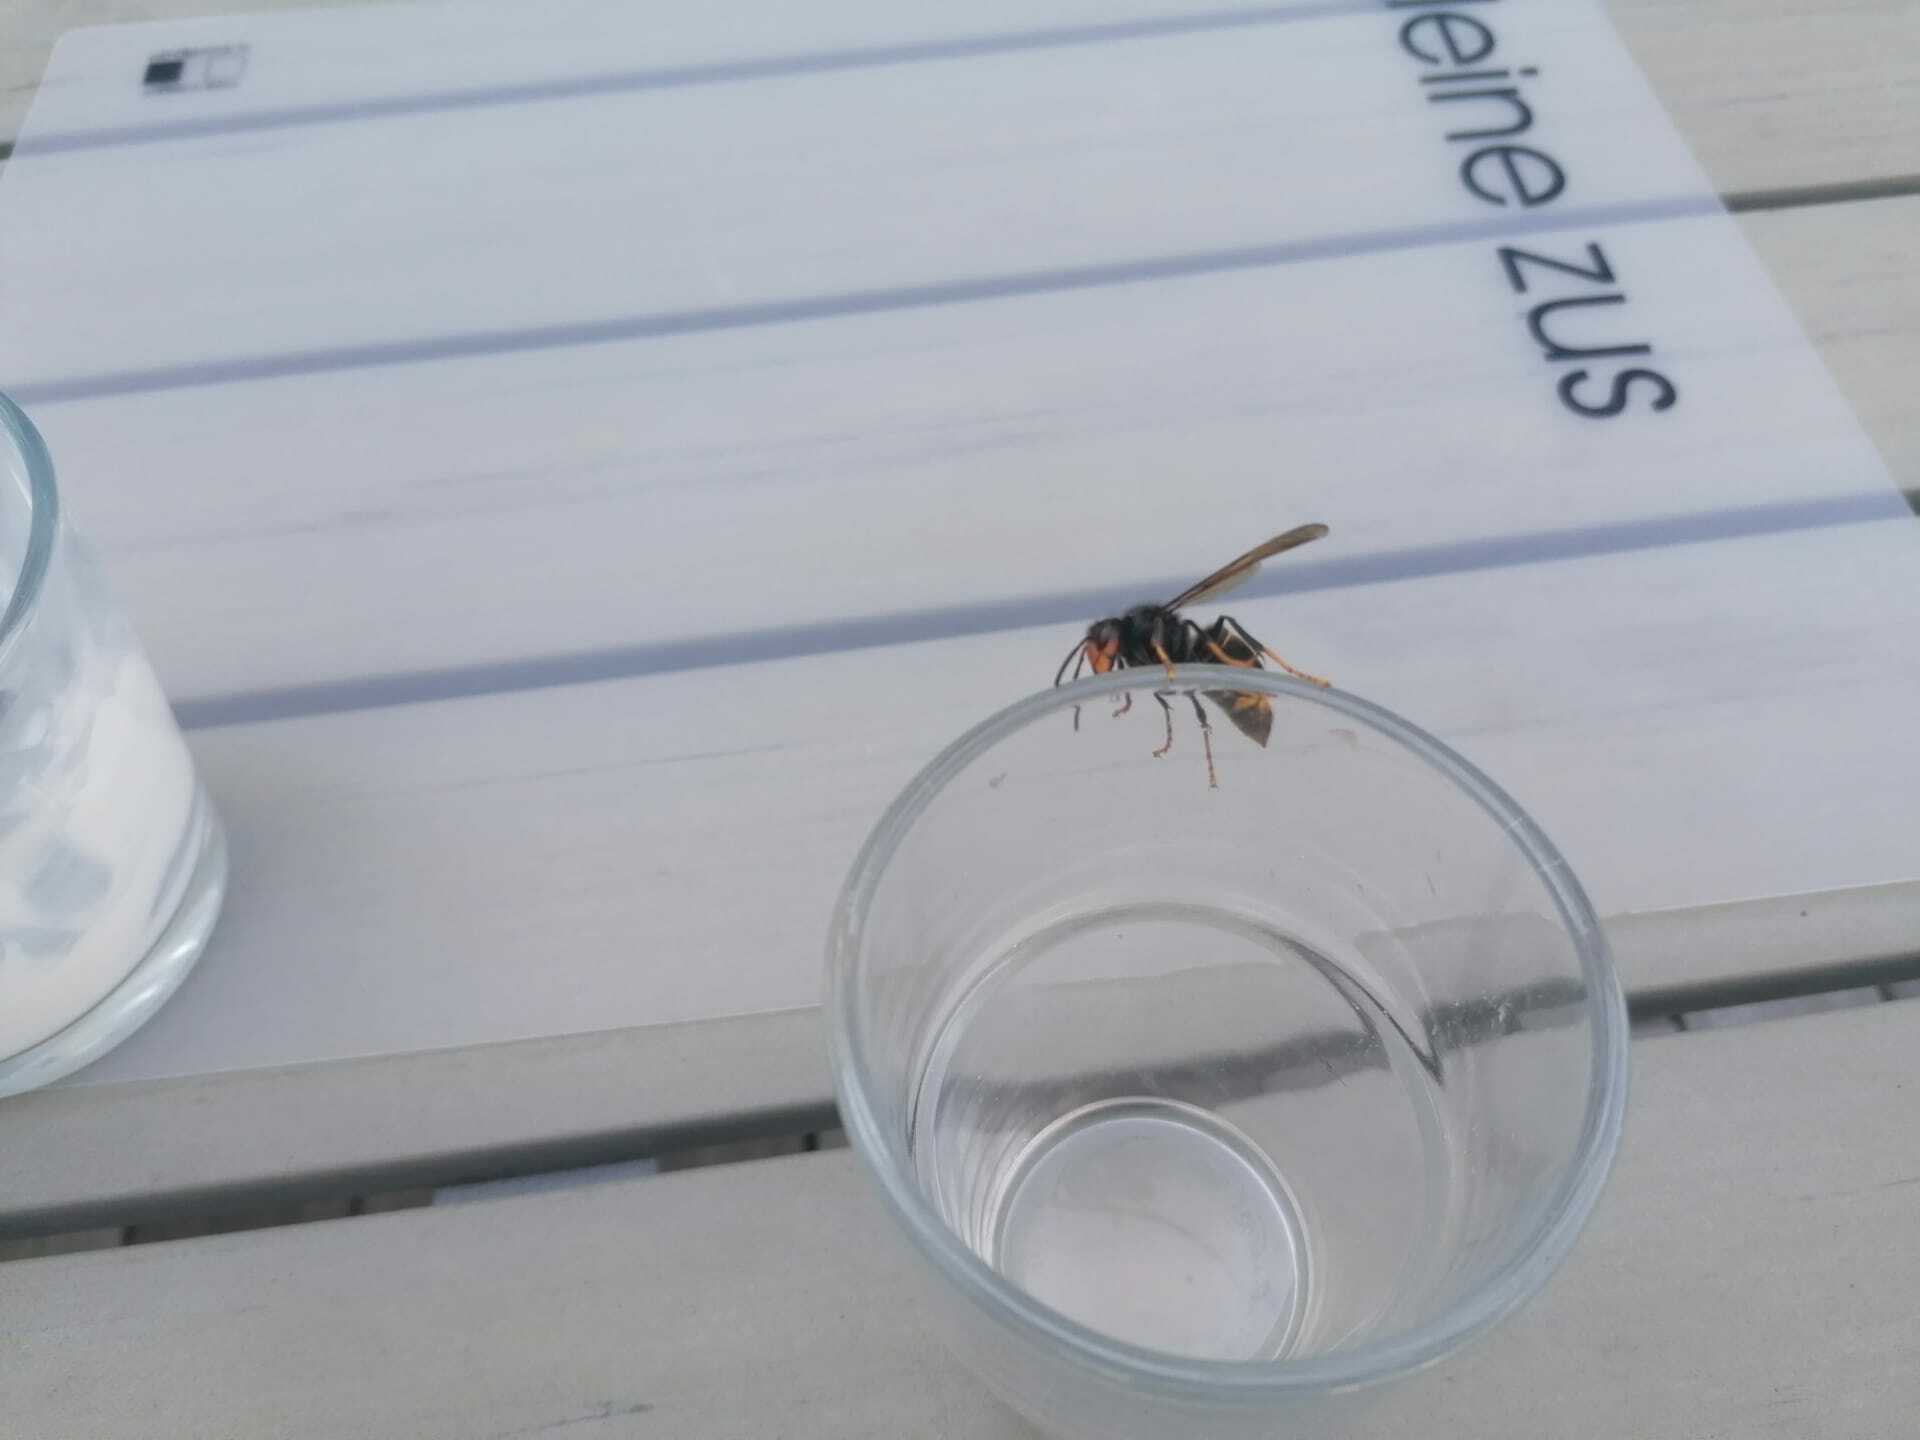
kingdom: Animalia
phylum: Arthropoda
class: Insecta
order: Hymenoptera
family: Vespidae
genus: Vespa
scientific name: Vespa velutina
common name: Asian hornet
